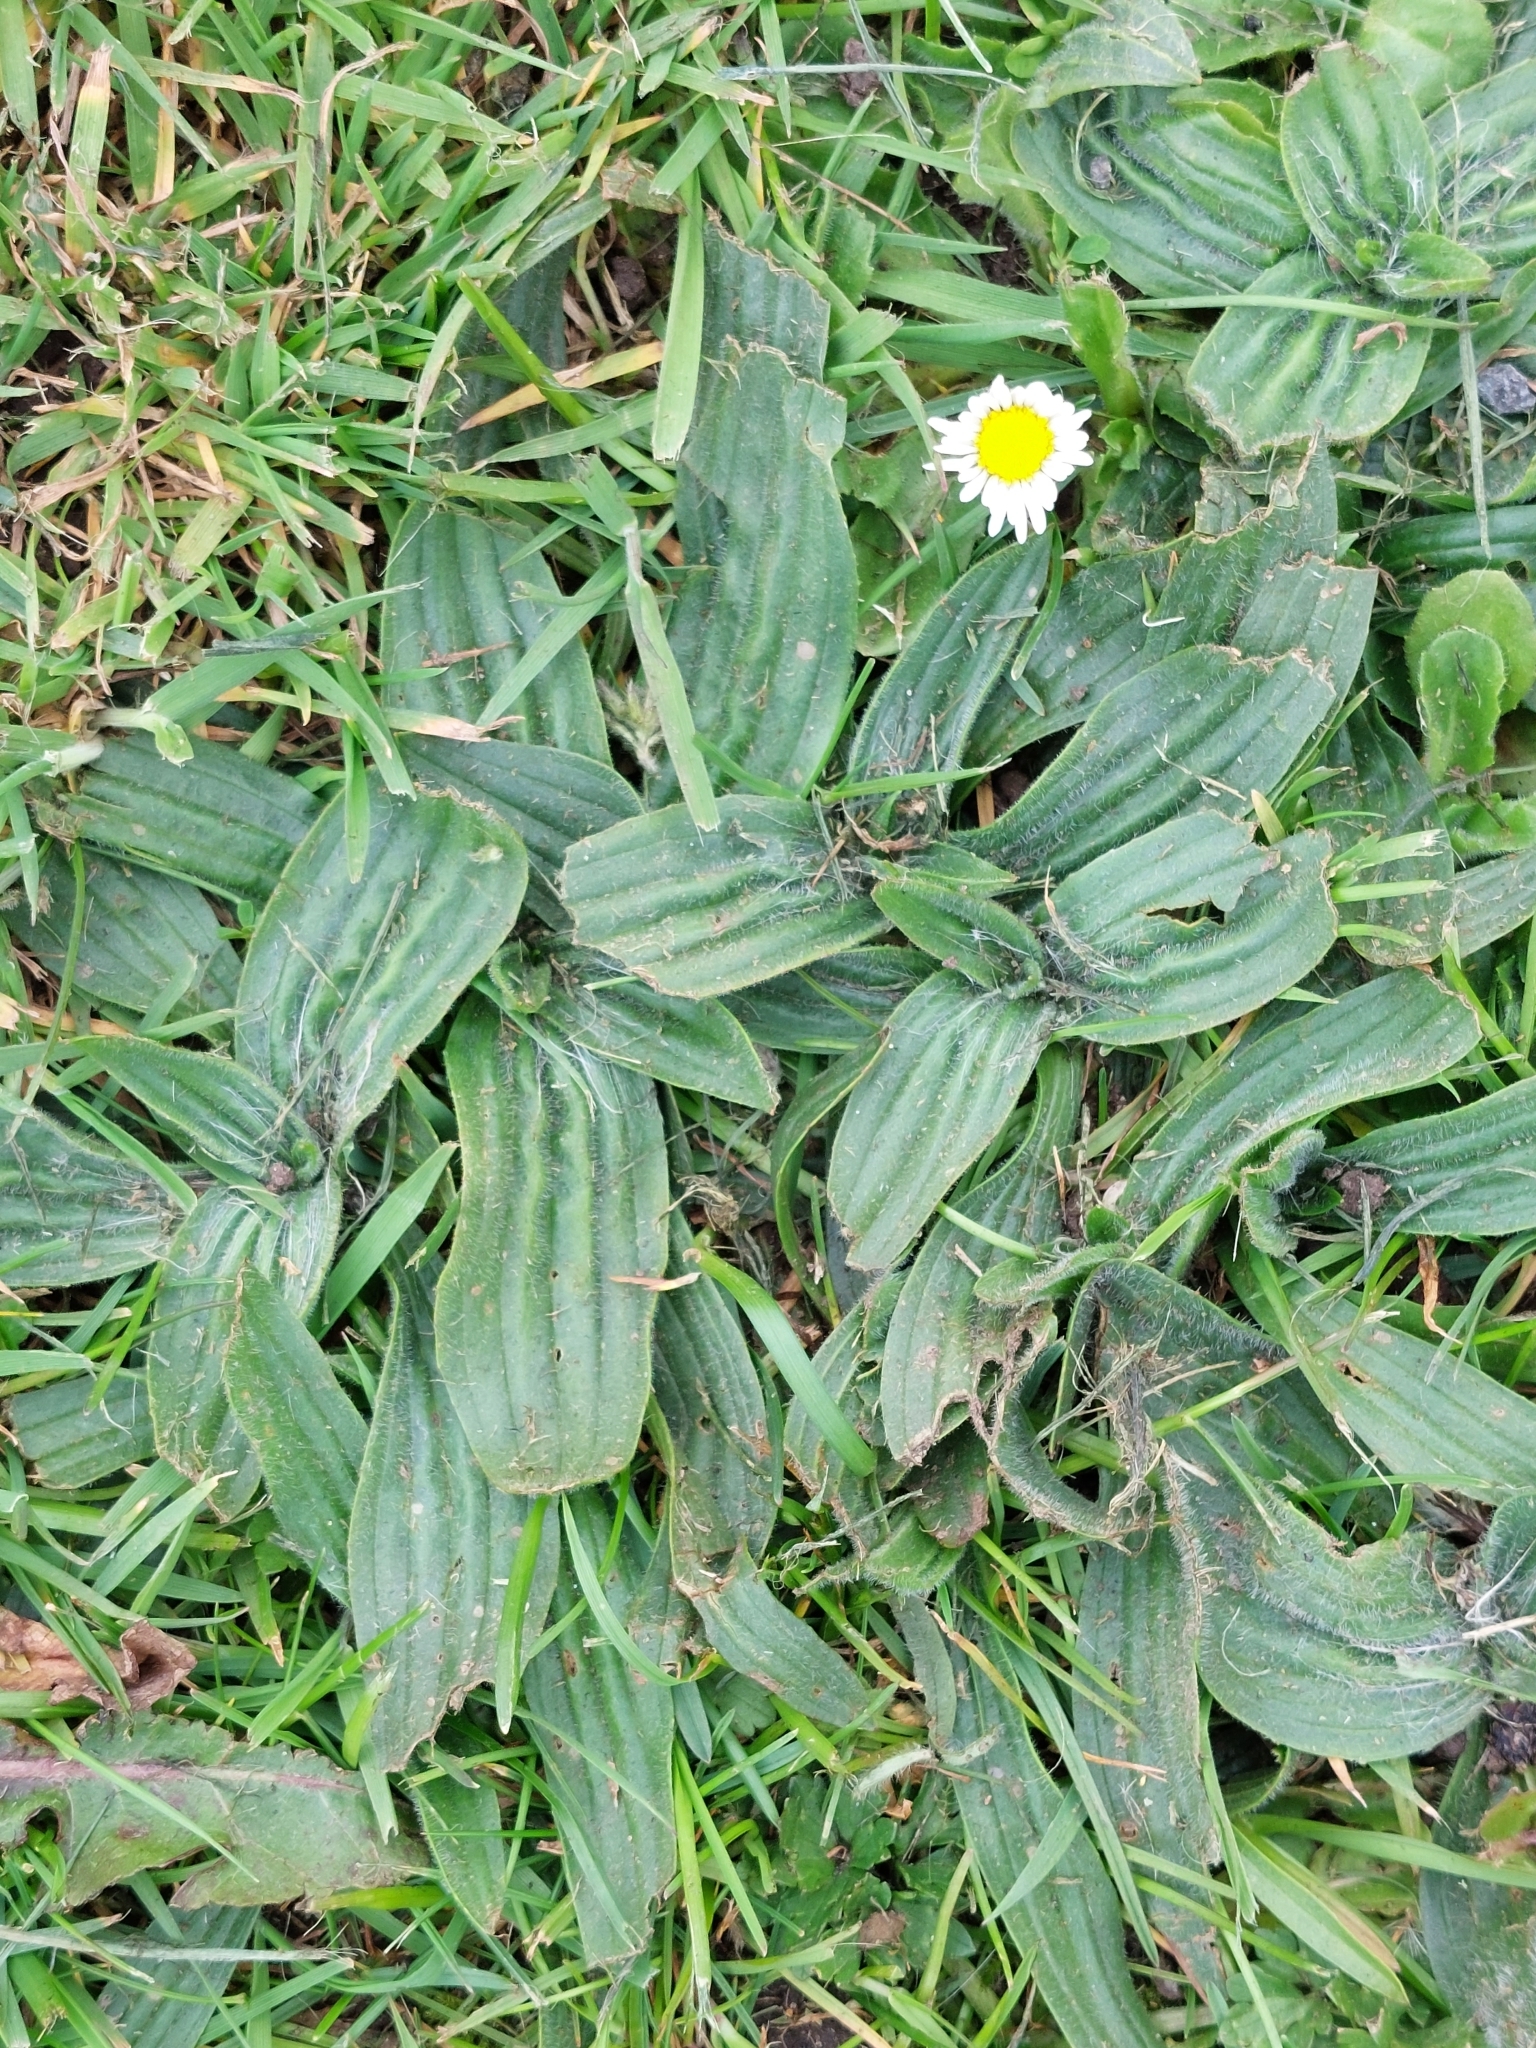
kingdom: Plantae
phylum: Tracheophyta
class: Magnoliopsida
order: Lamiales
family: Plantaginaceae
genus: Plantago
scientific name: Plantago lanceolata
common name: Ribwort plantain
